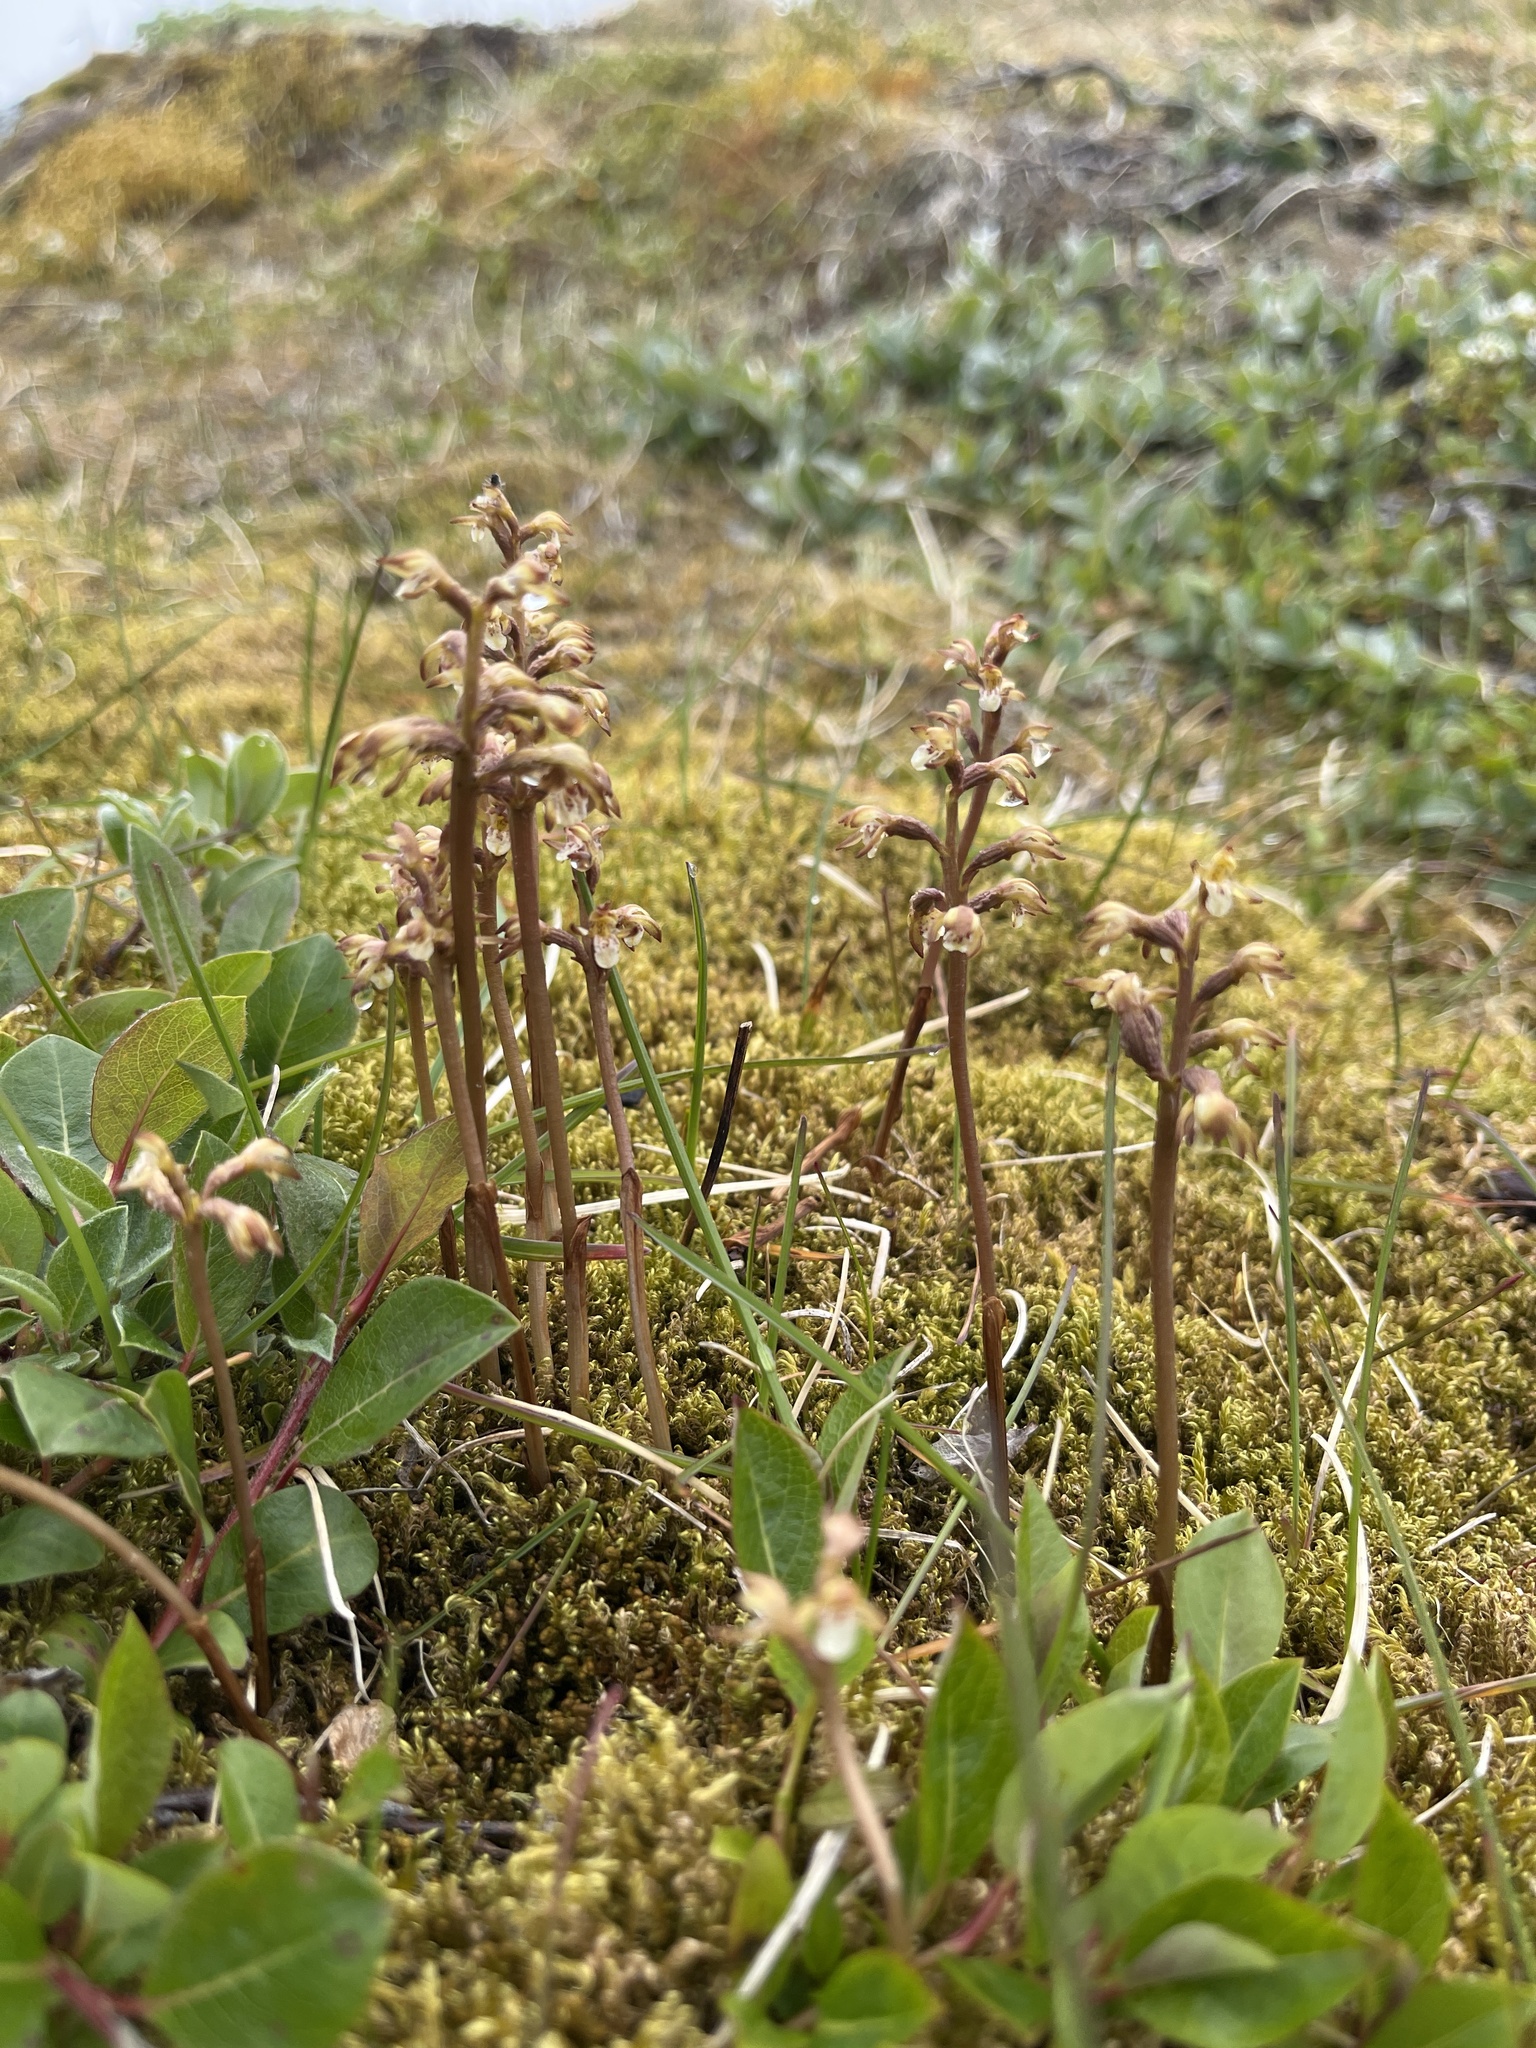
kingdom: Plantae
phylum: Tracheophyta
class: Liliopsida
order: Asparagales
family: Orchidaceae
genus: Corallorhiza
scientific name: Corallorhiza trifida
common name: Yellow coralroot
